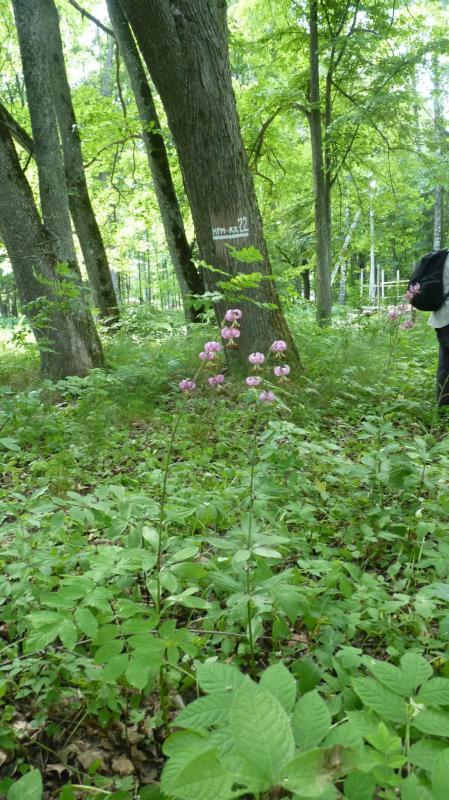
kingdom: Plantae
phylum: Tracheophyta
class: Liliopsida
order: Liliales
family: Liliaceae
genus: Lilium
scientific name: Lilium martagon
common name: Martagon lily
